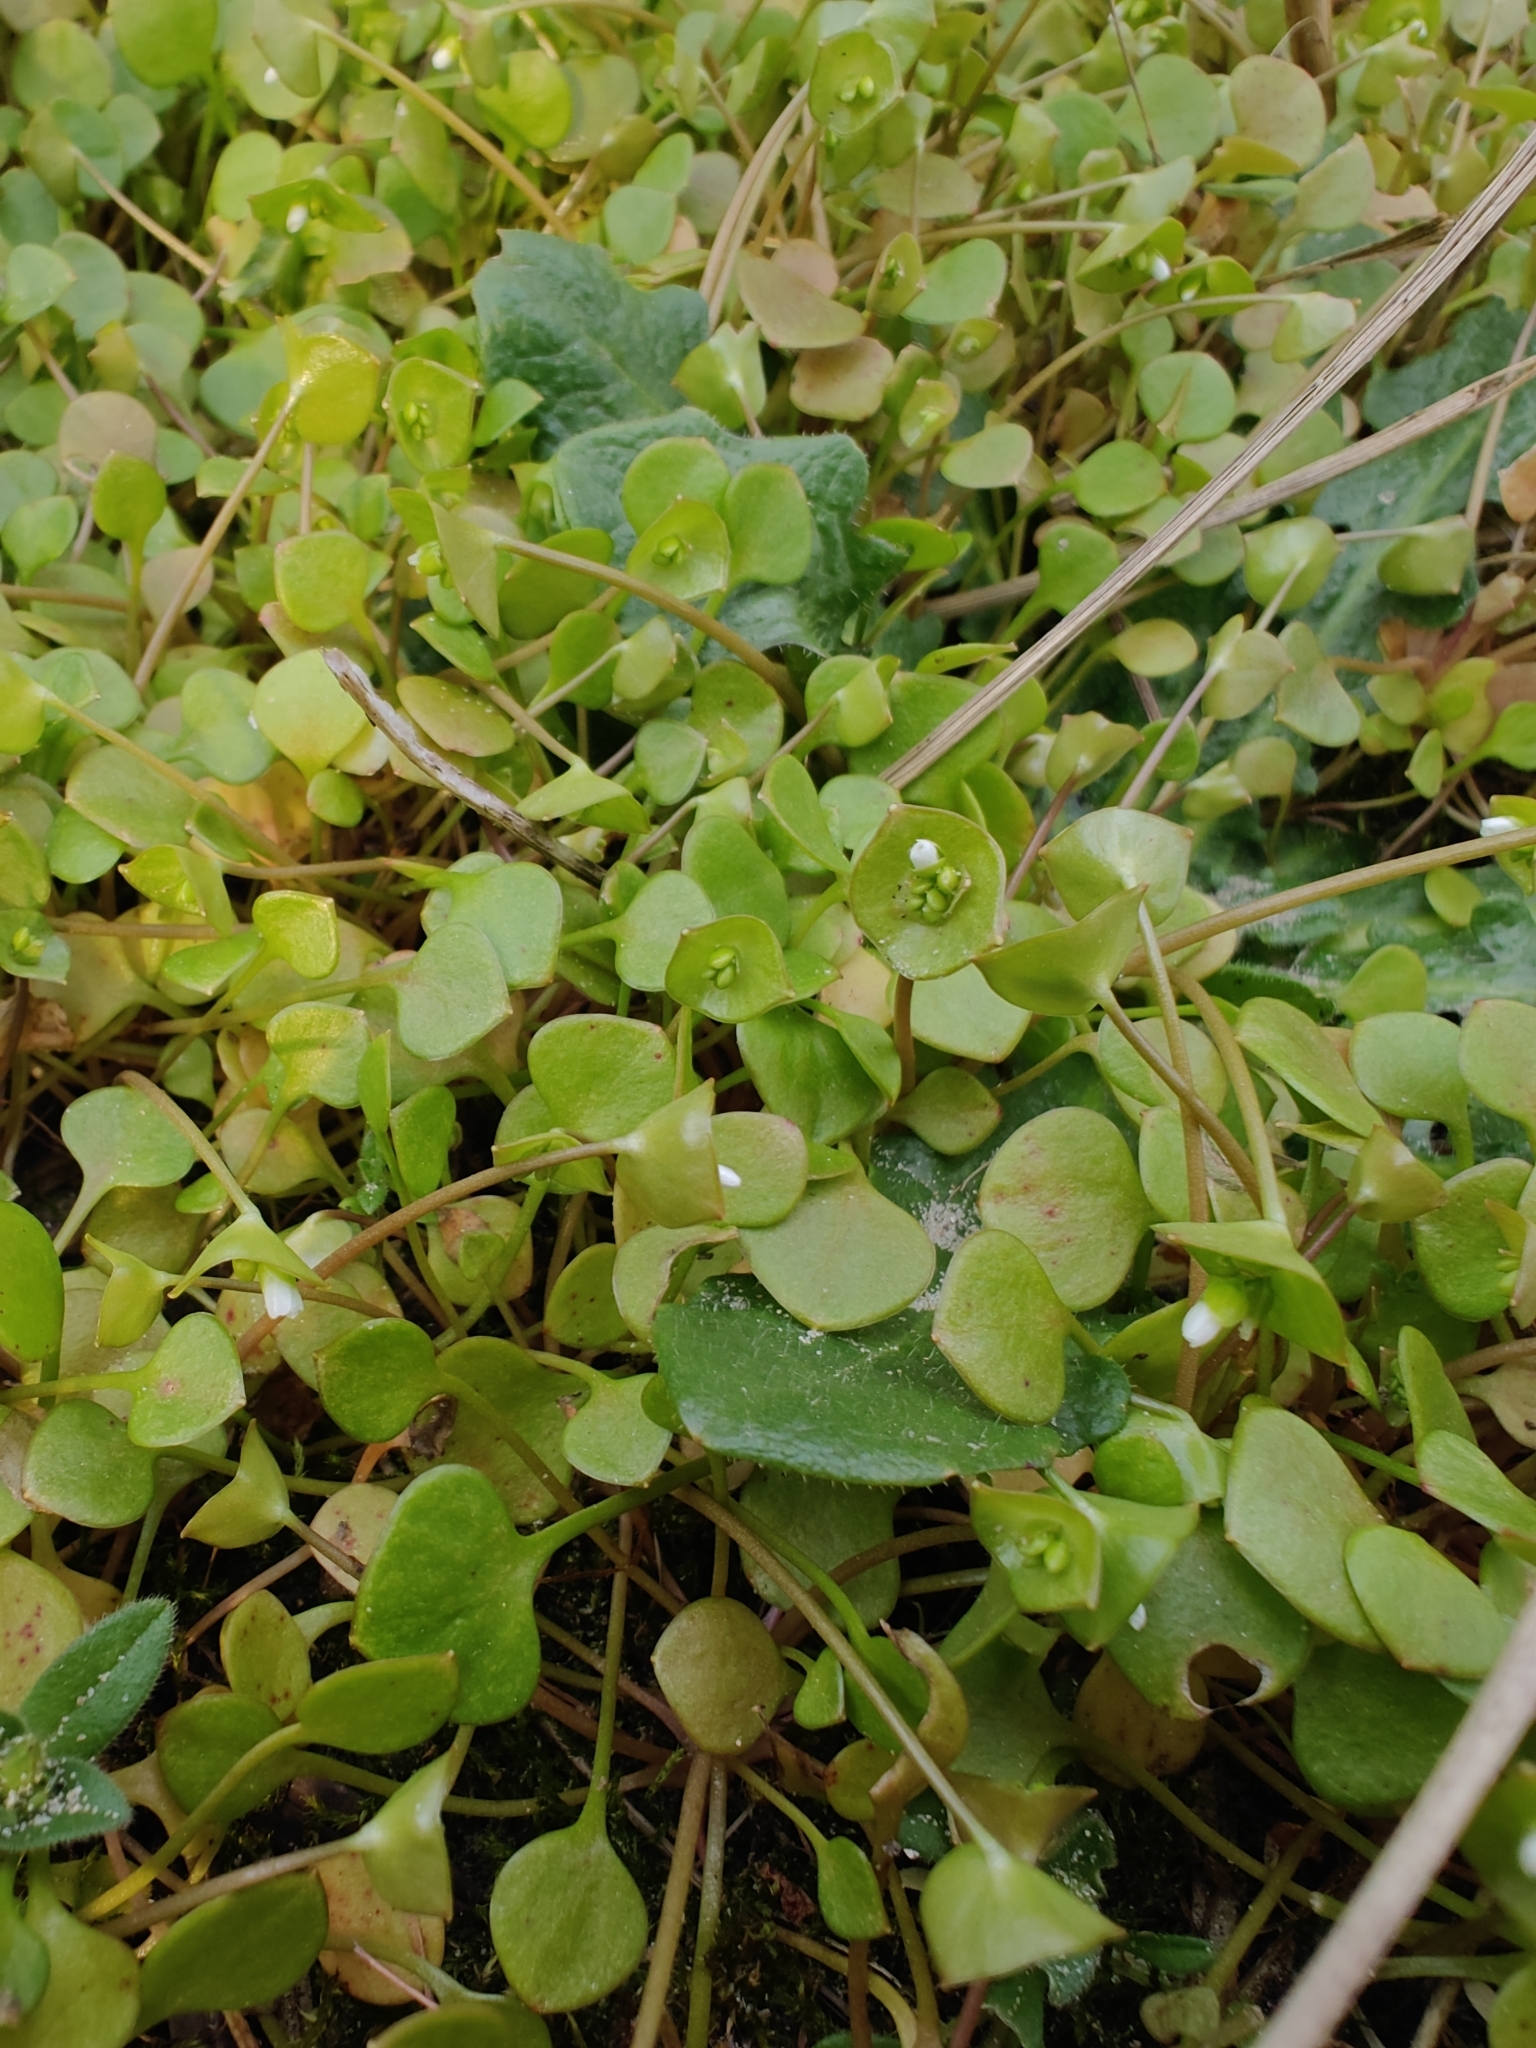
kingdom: Plantae
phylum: Tracheophyta
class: Magnoliopsida
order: Caryophyllales
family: Montiaceae
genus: Claytonia
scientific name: Claytonia perfoliata
